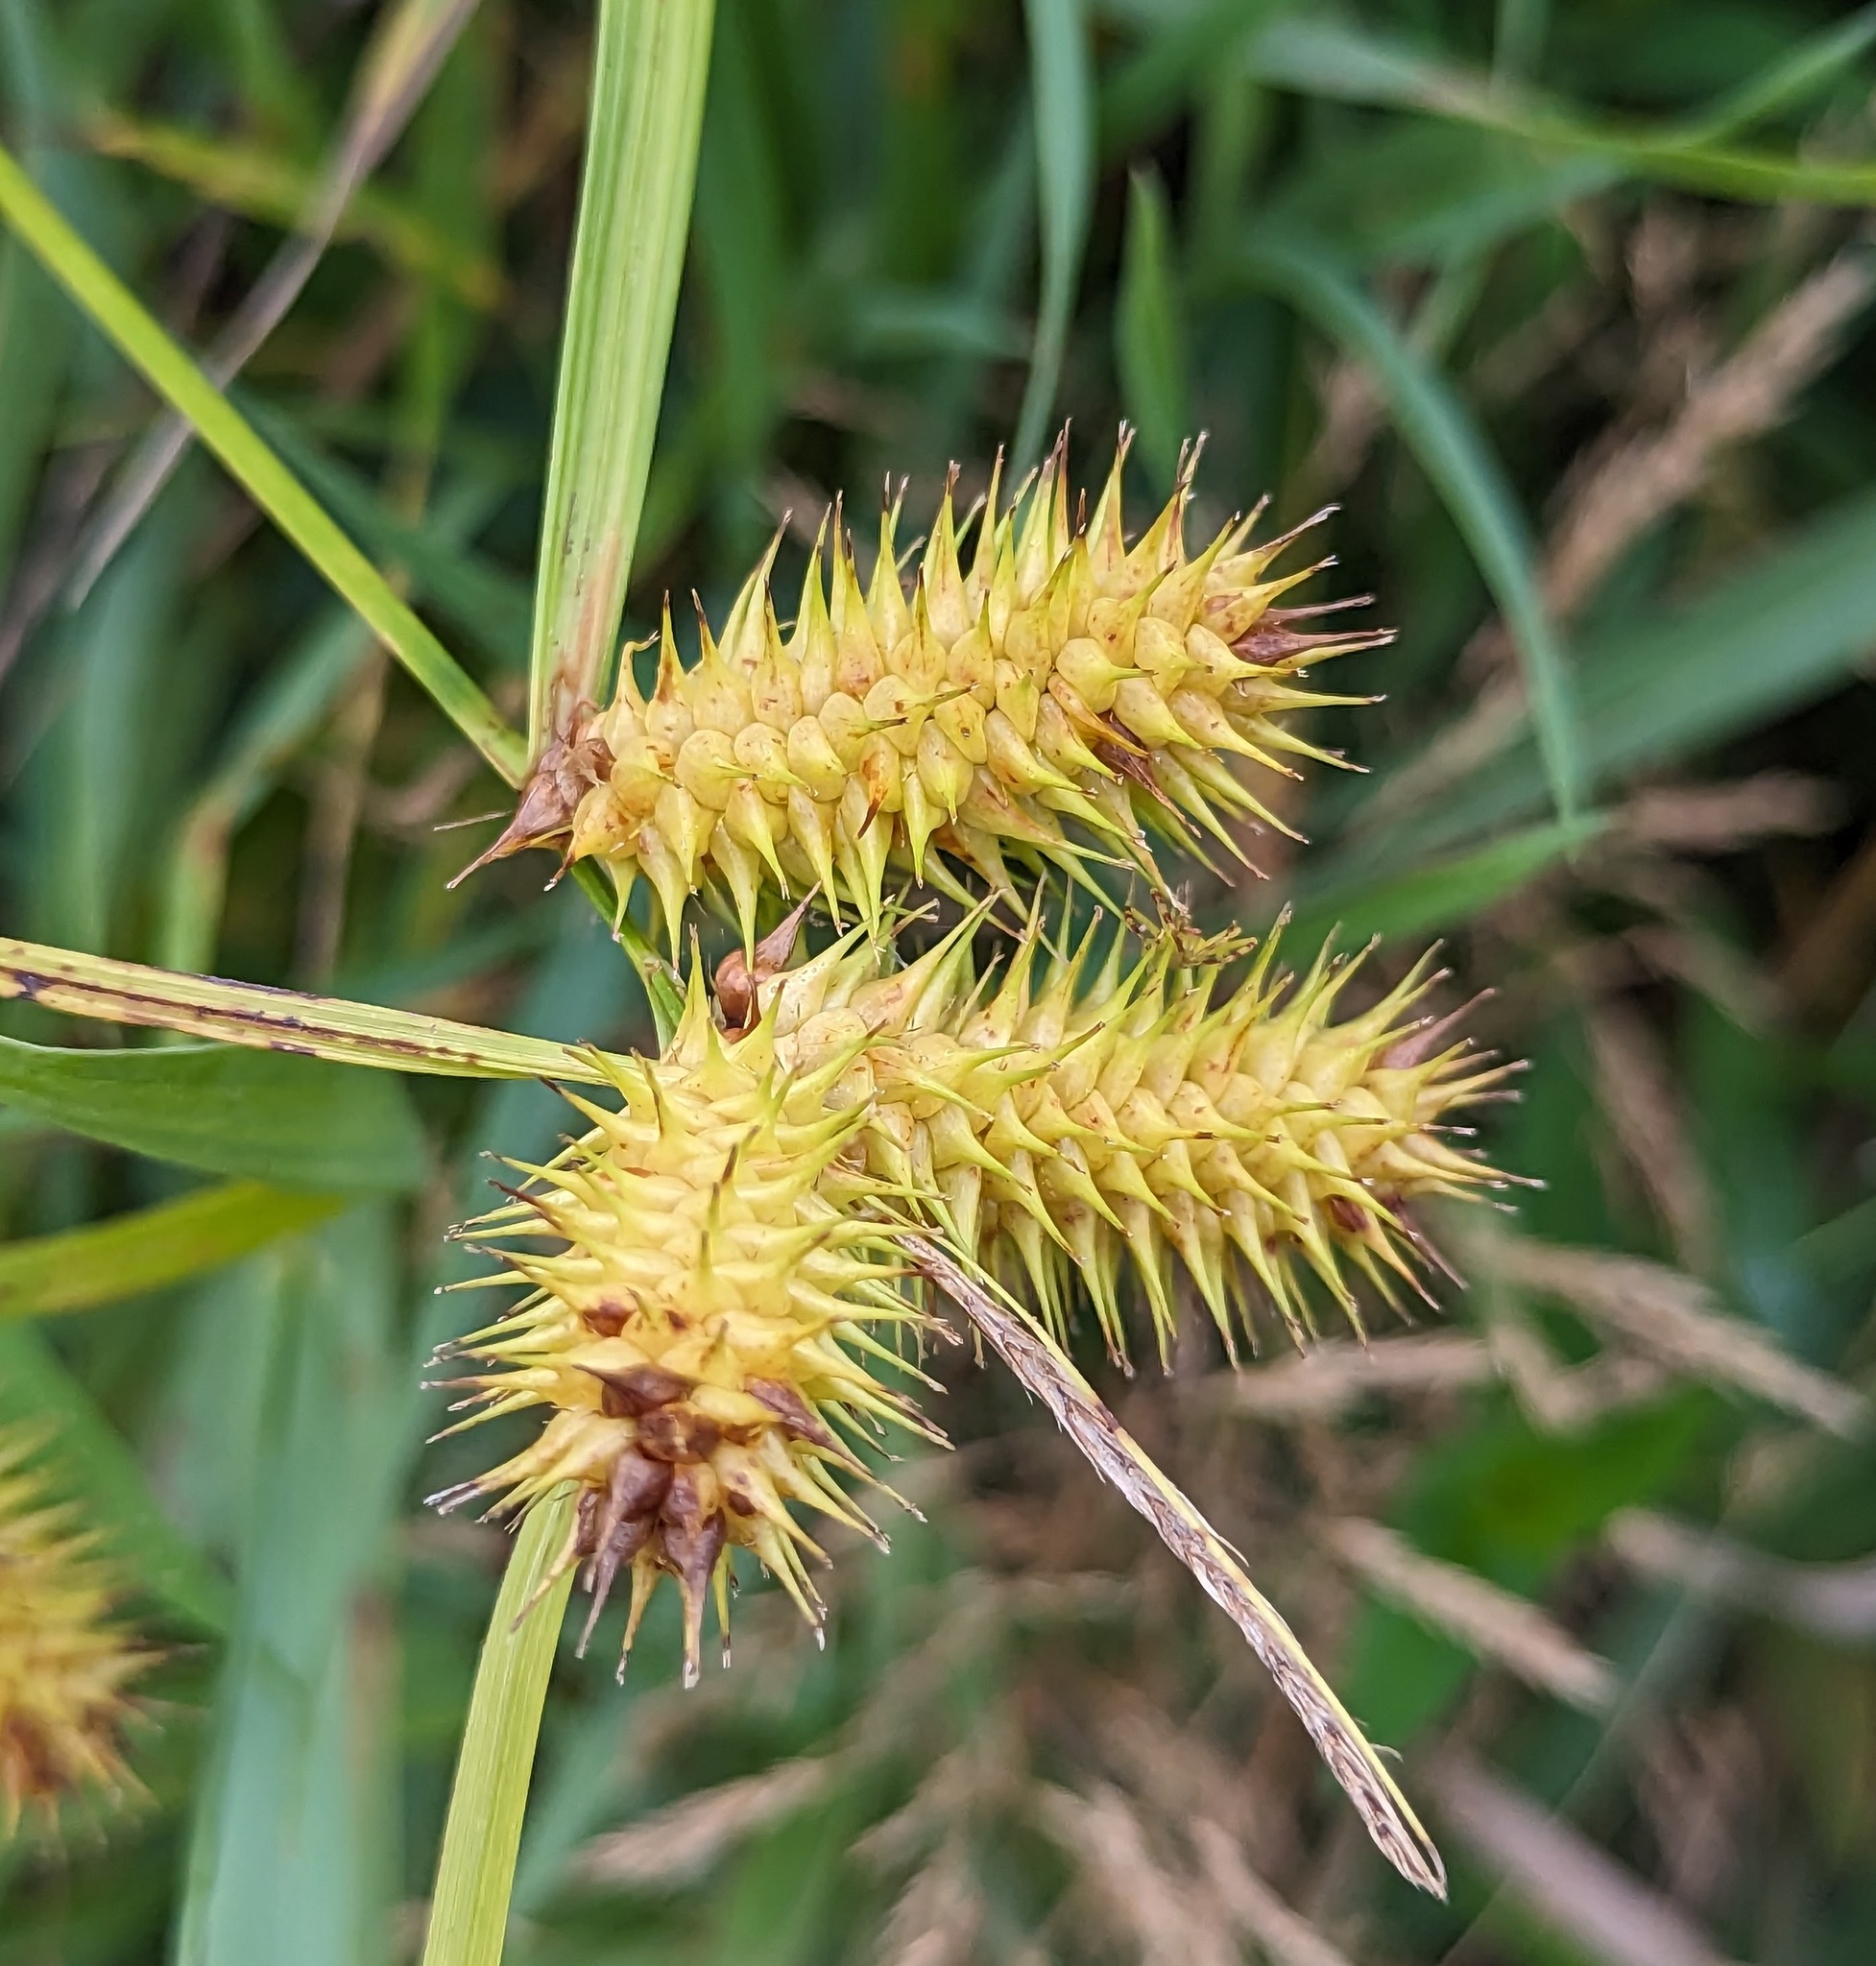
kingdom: Plantae
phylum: Tracheophyta
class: Liliopsida
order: Poales
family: Cyperaceae
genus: Carex
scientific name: Carex lurida
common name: Sallow sedge
